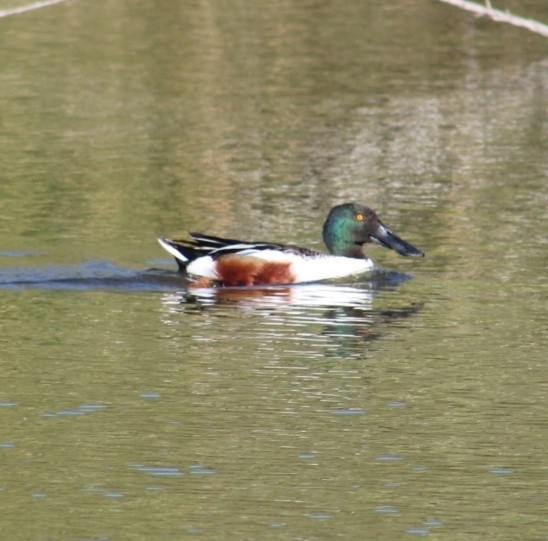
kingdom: Animalia
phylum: Chordata
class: Aves
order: Anseriformes
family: Anatidae
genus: Spatula
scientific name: Spatula clypeata
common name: Northern shoveler
